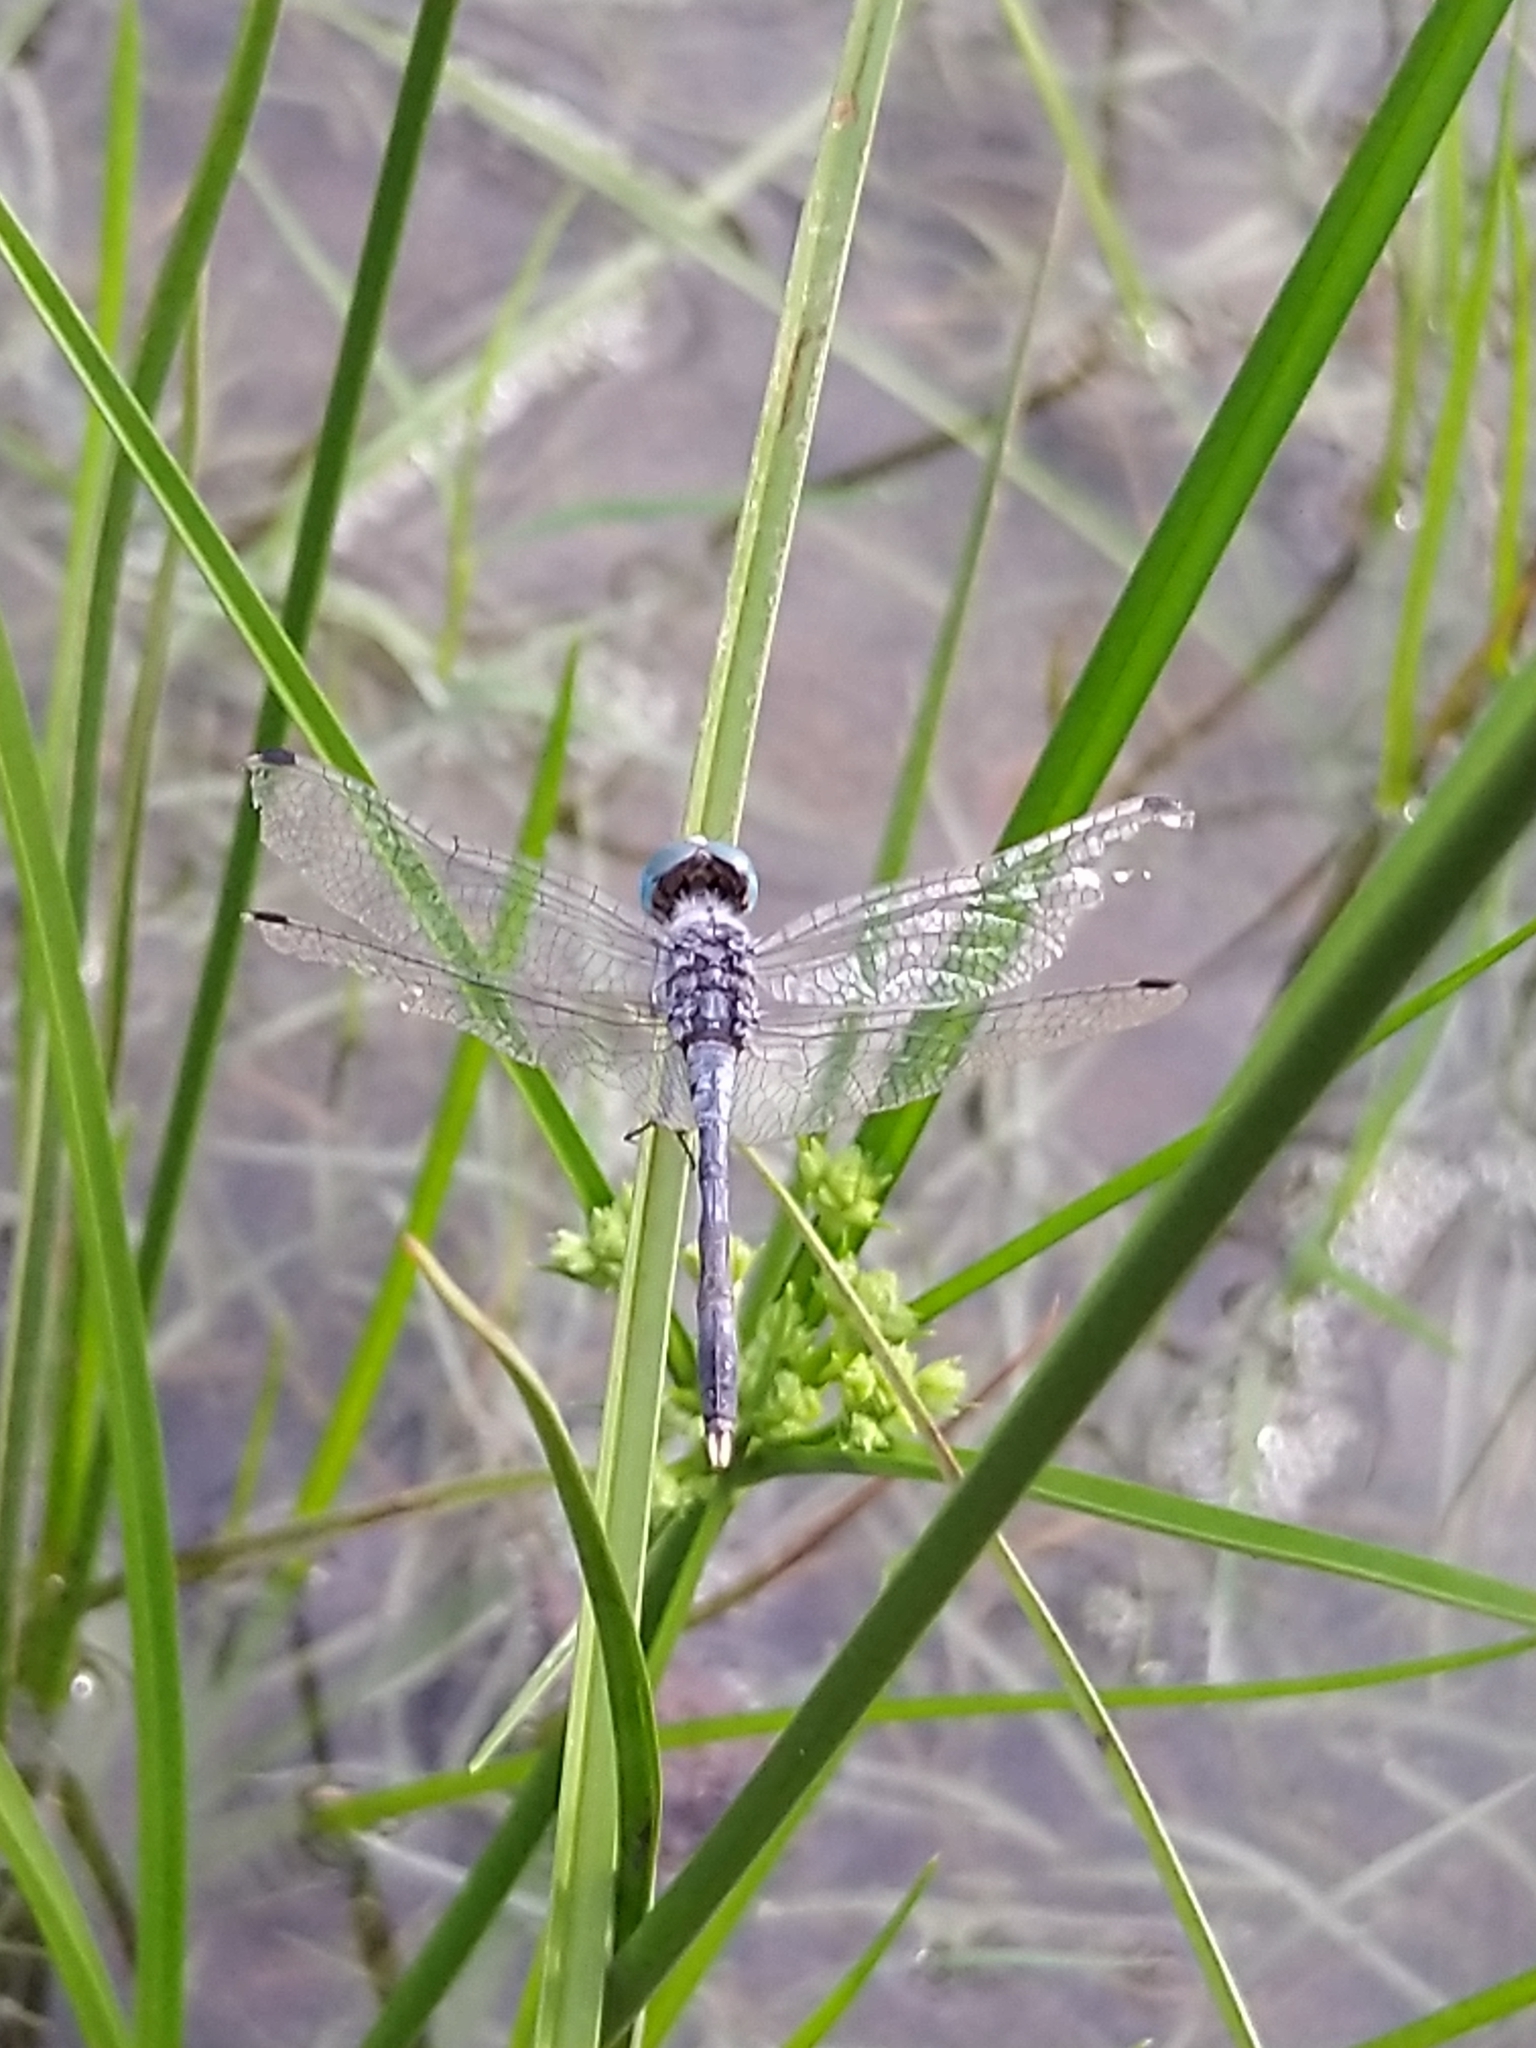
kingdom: Animalia
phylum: Arthropoda
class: Insecta
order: Odonata
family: Libellulidae
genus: Diplacodes
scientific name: Diplacodes trivialis
